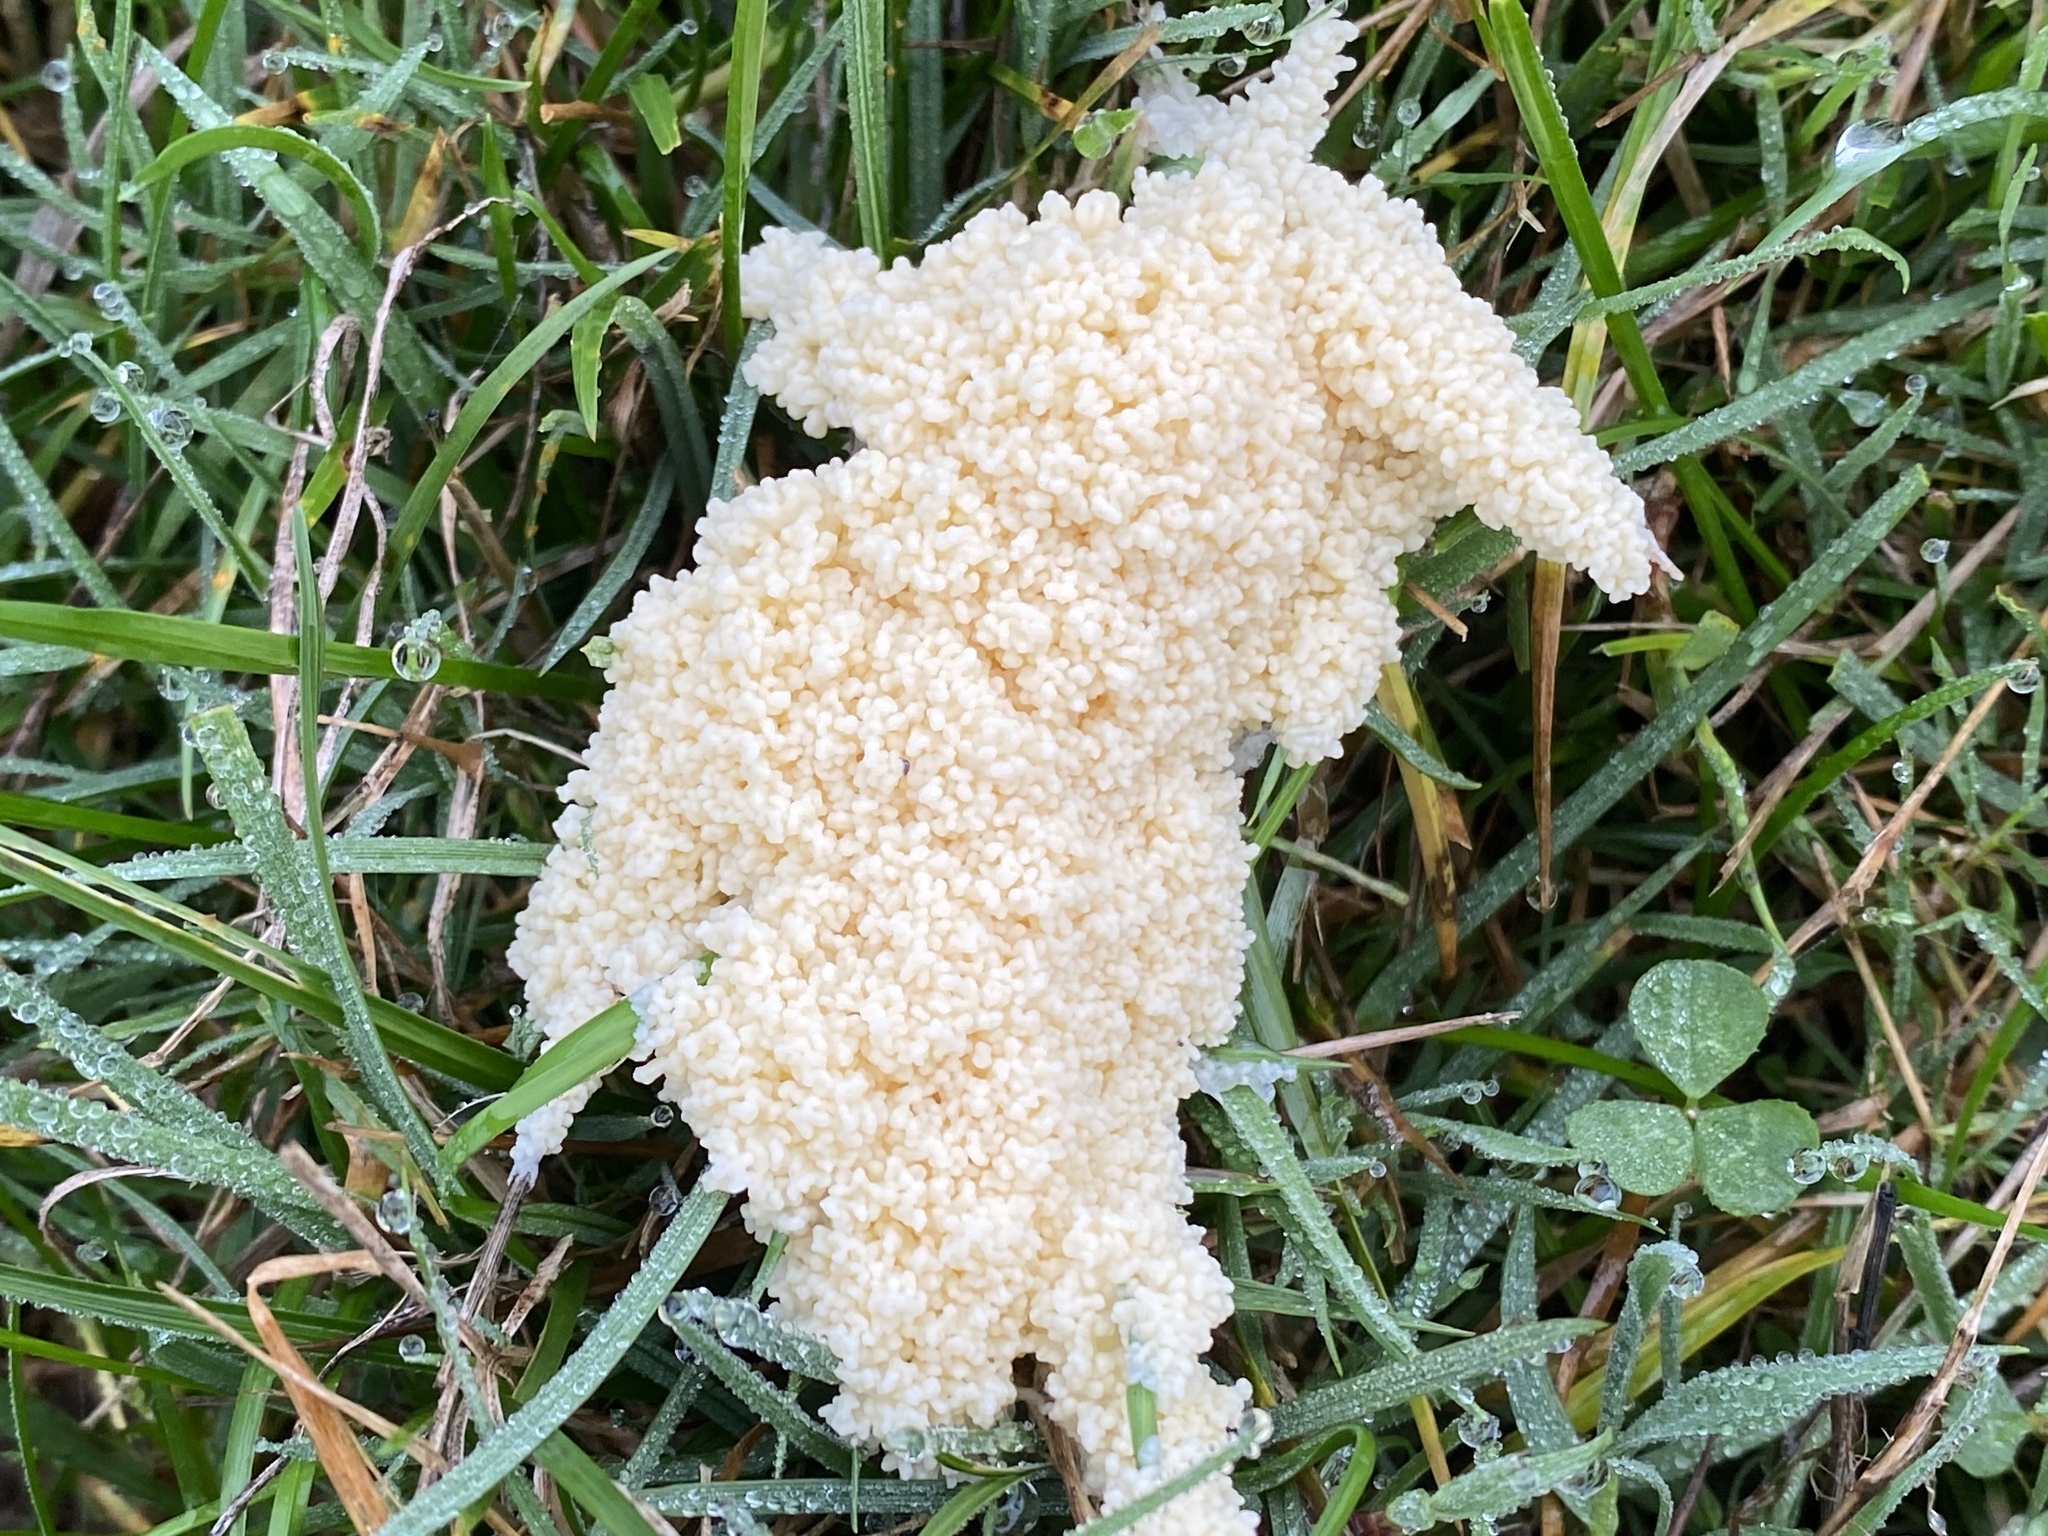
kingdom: Protozoa
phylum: Mycetozoa
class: Myxomycetes
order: Physarales
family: Physaraceae
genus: Didymium
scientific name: Didymium
